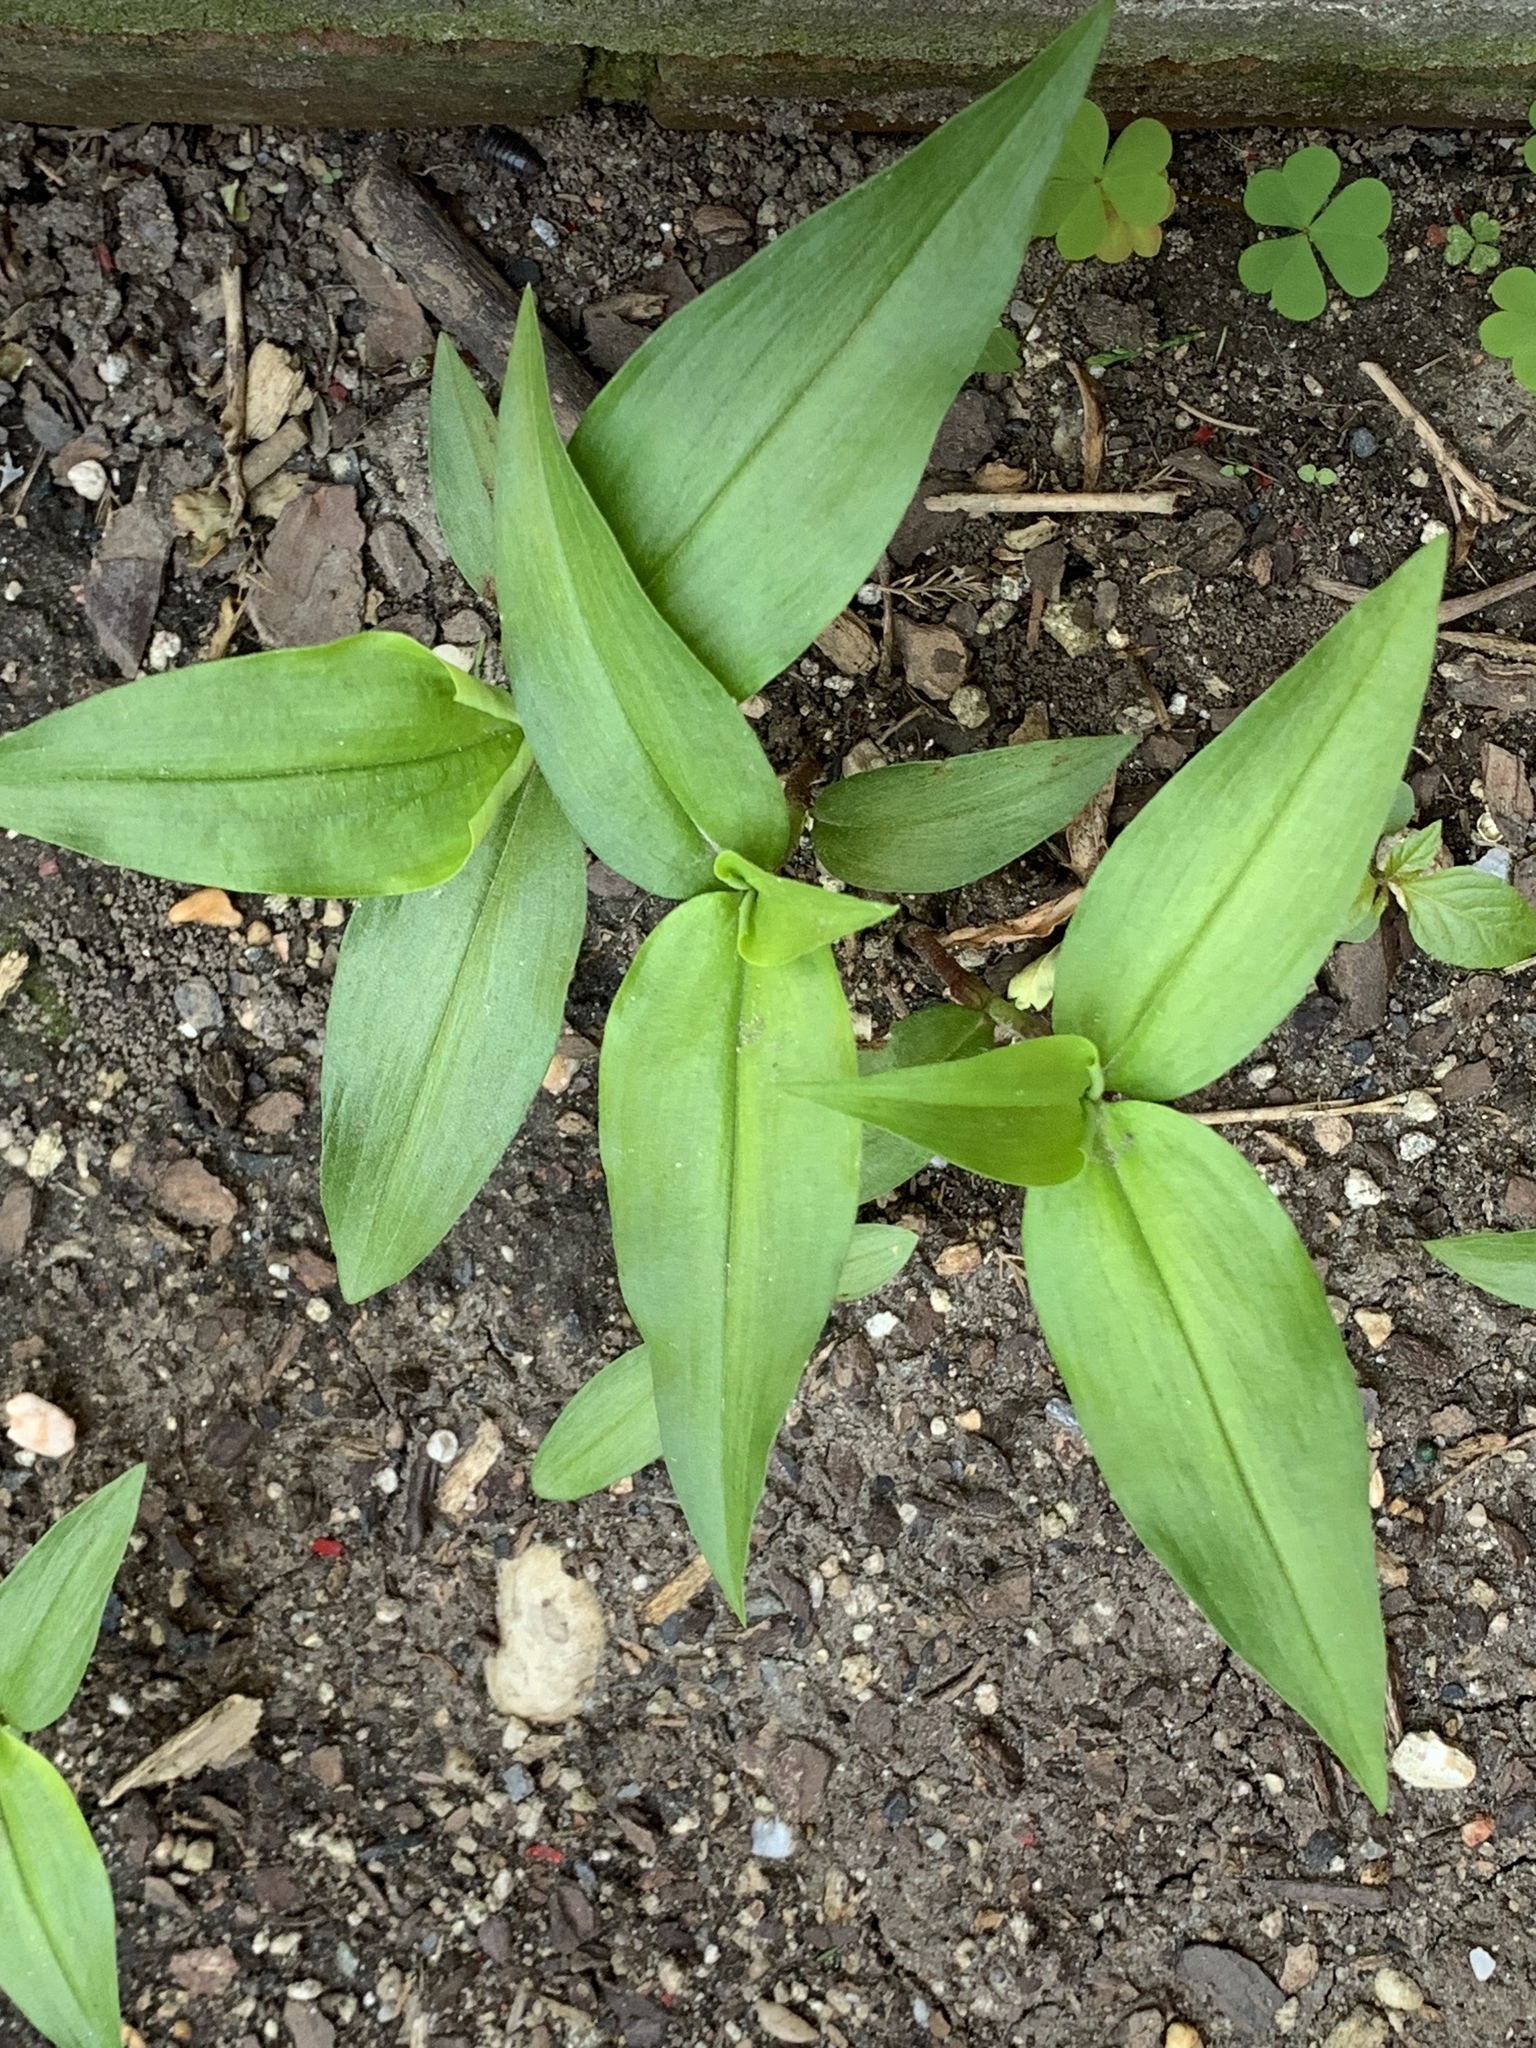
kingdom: Plantae
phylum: Tracheophyta
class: Liliopsida
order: Commelinales
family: Commelinaceae
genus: Commelina
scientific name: Commelina communis
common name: Asiatic dayflower
